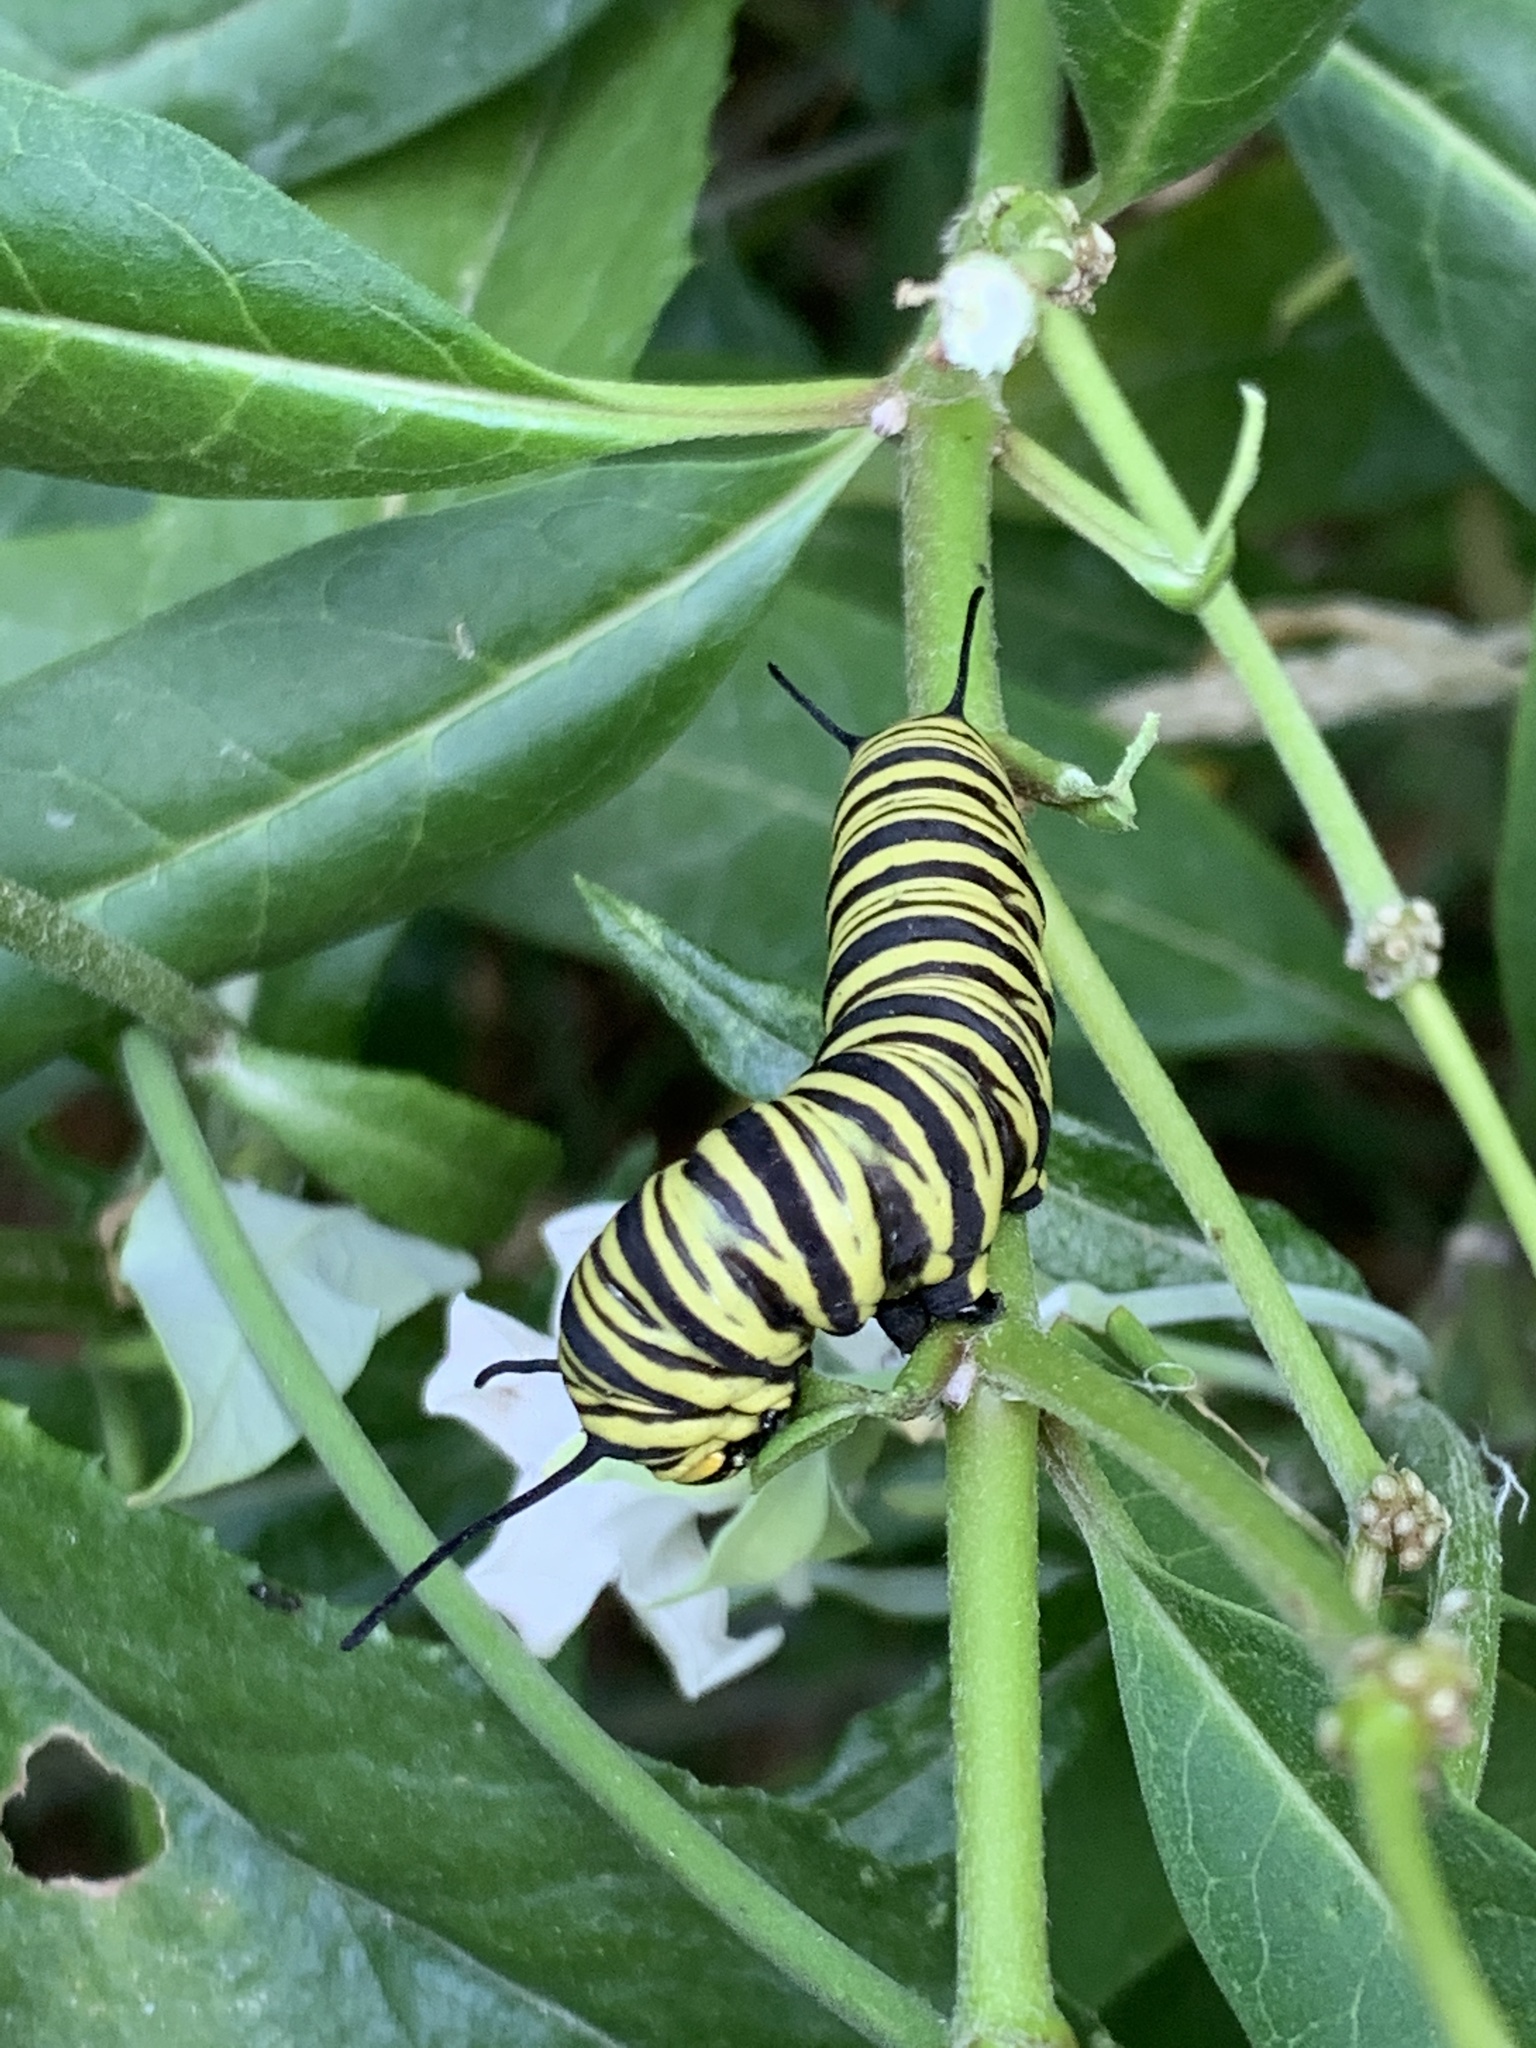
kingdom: Animalia
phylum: Arthropoda
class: Insecta
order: Lepidoptera
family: Nymphalidae
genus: Danaus
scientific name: Danaus erippus
